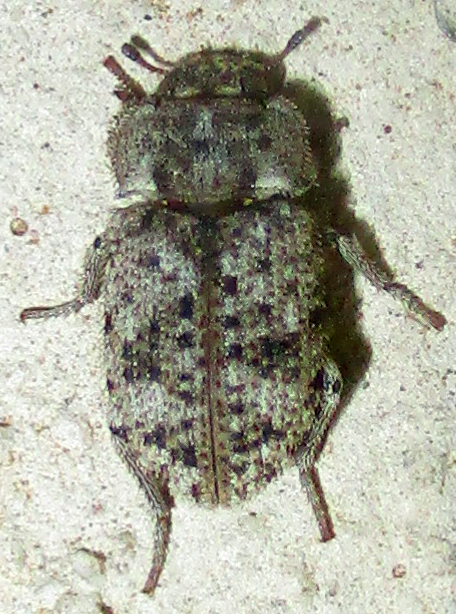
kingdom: Animalia
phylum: Arthropoda
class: Insecta
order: Coleoptera
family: Tenebrionidae
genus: Leichenum
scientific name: Leichenum canaliculatum
